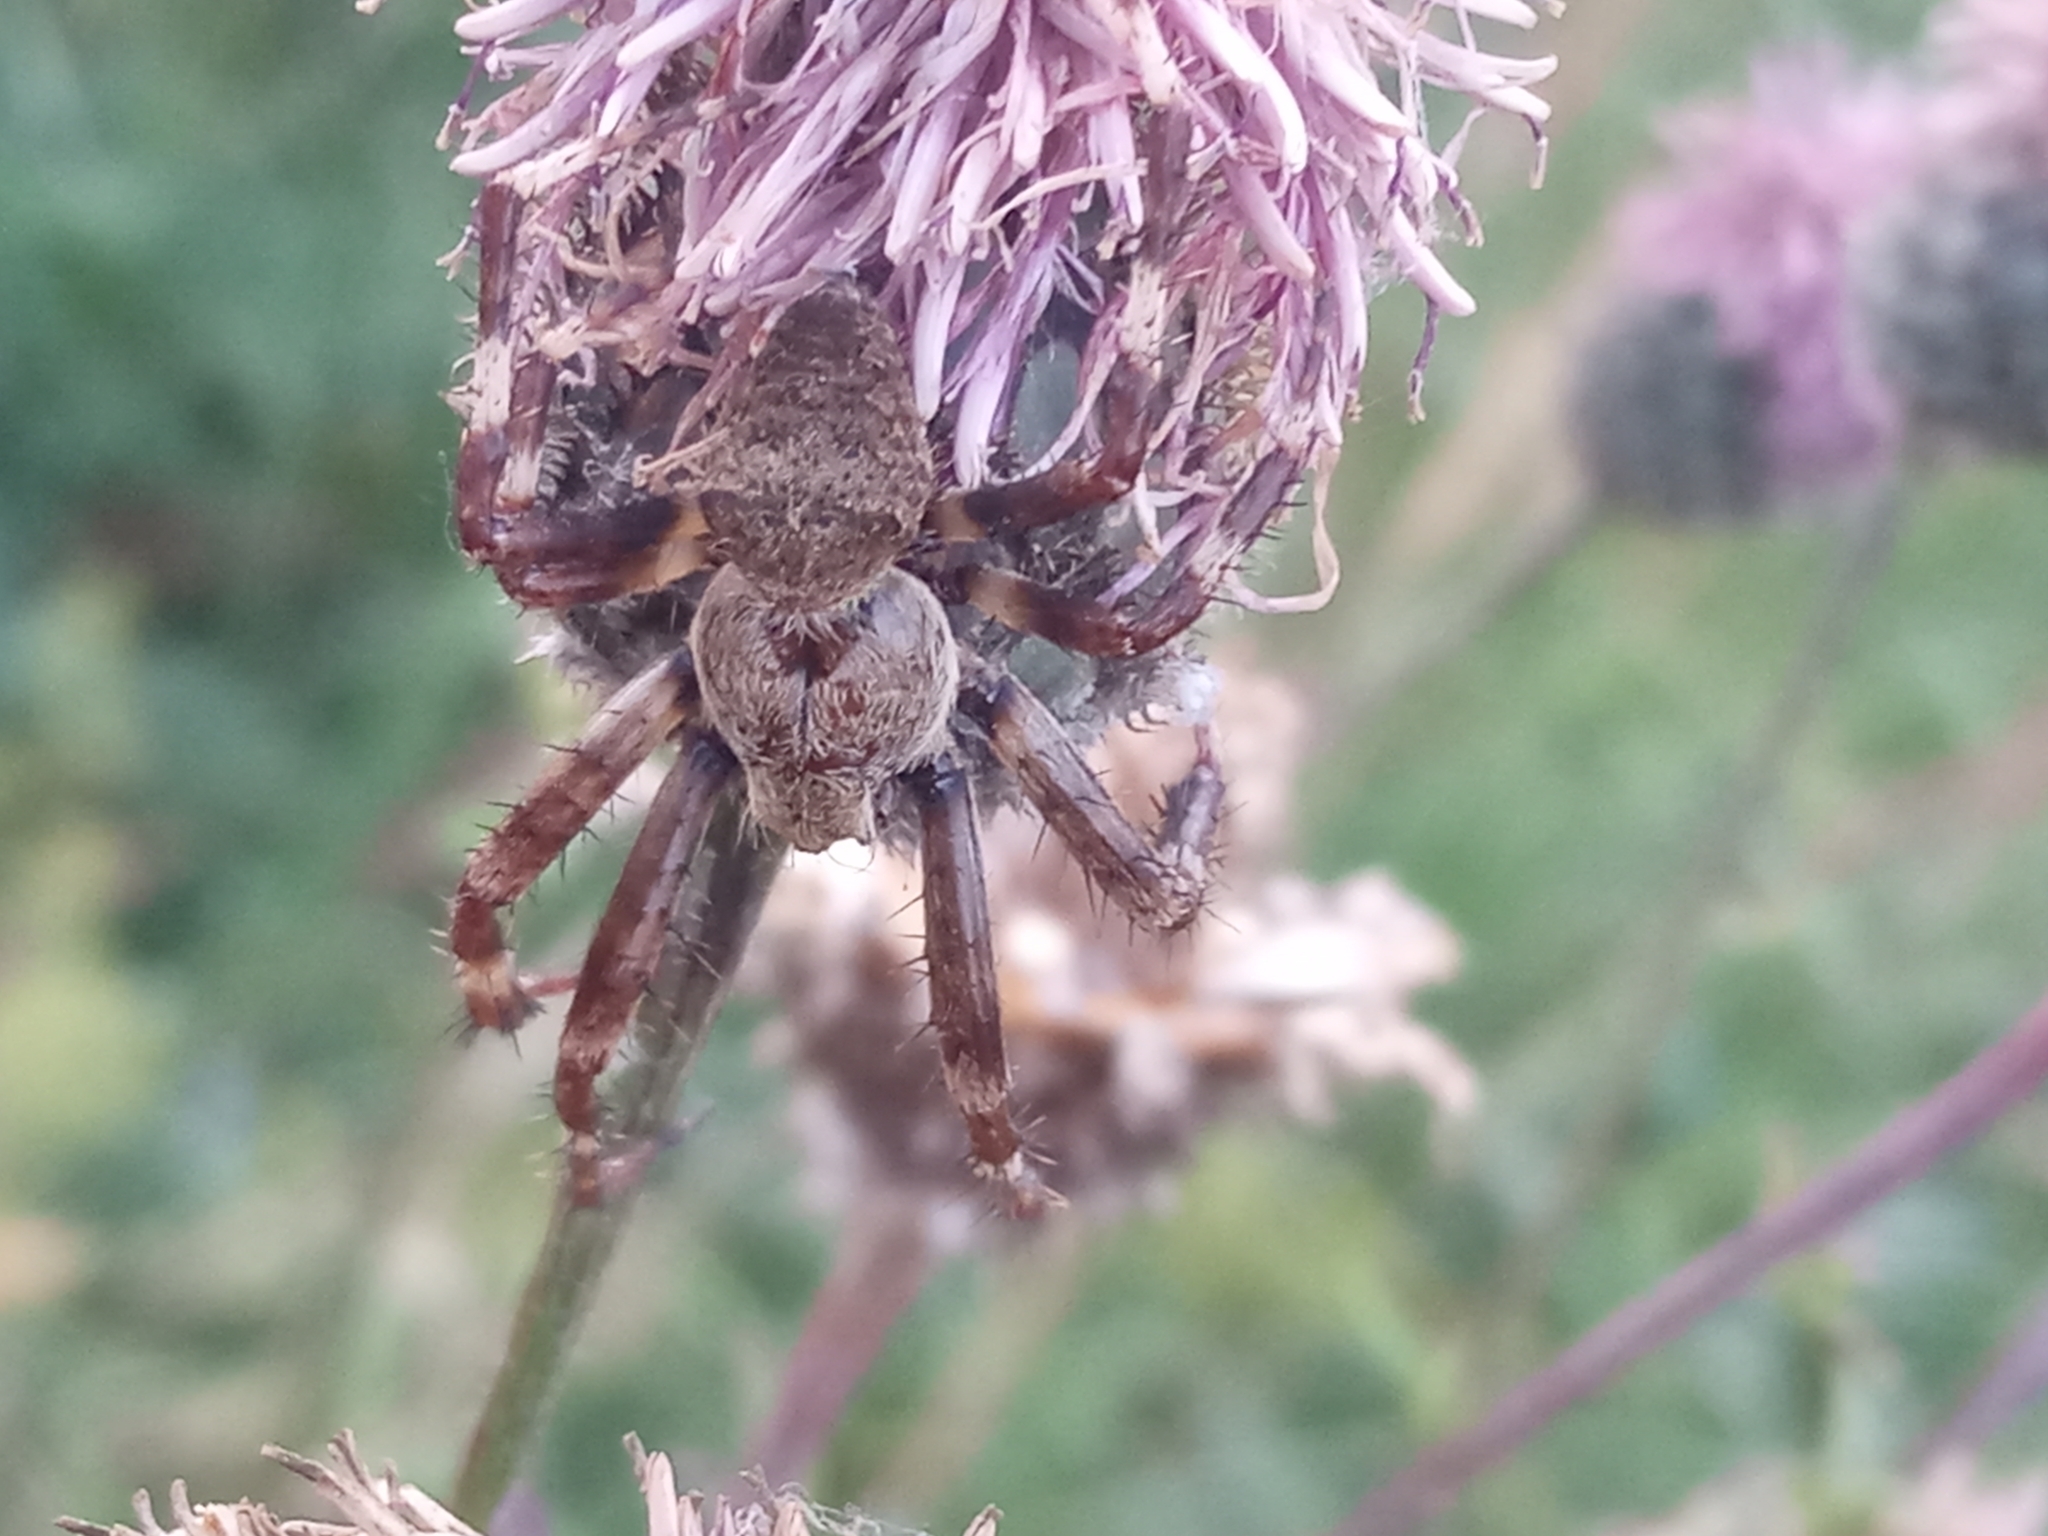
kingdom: Animalia
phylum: Arthropoda
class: Arachnida
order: Araneae
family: Araneidae
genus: Araneus
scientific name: Araneus angulatus
